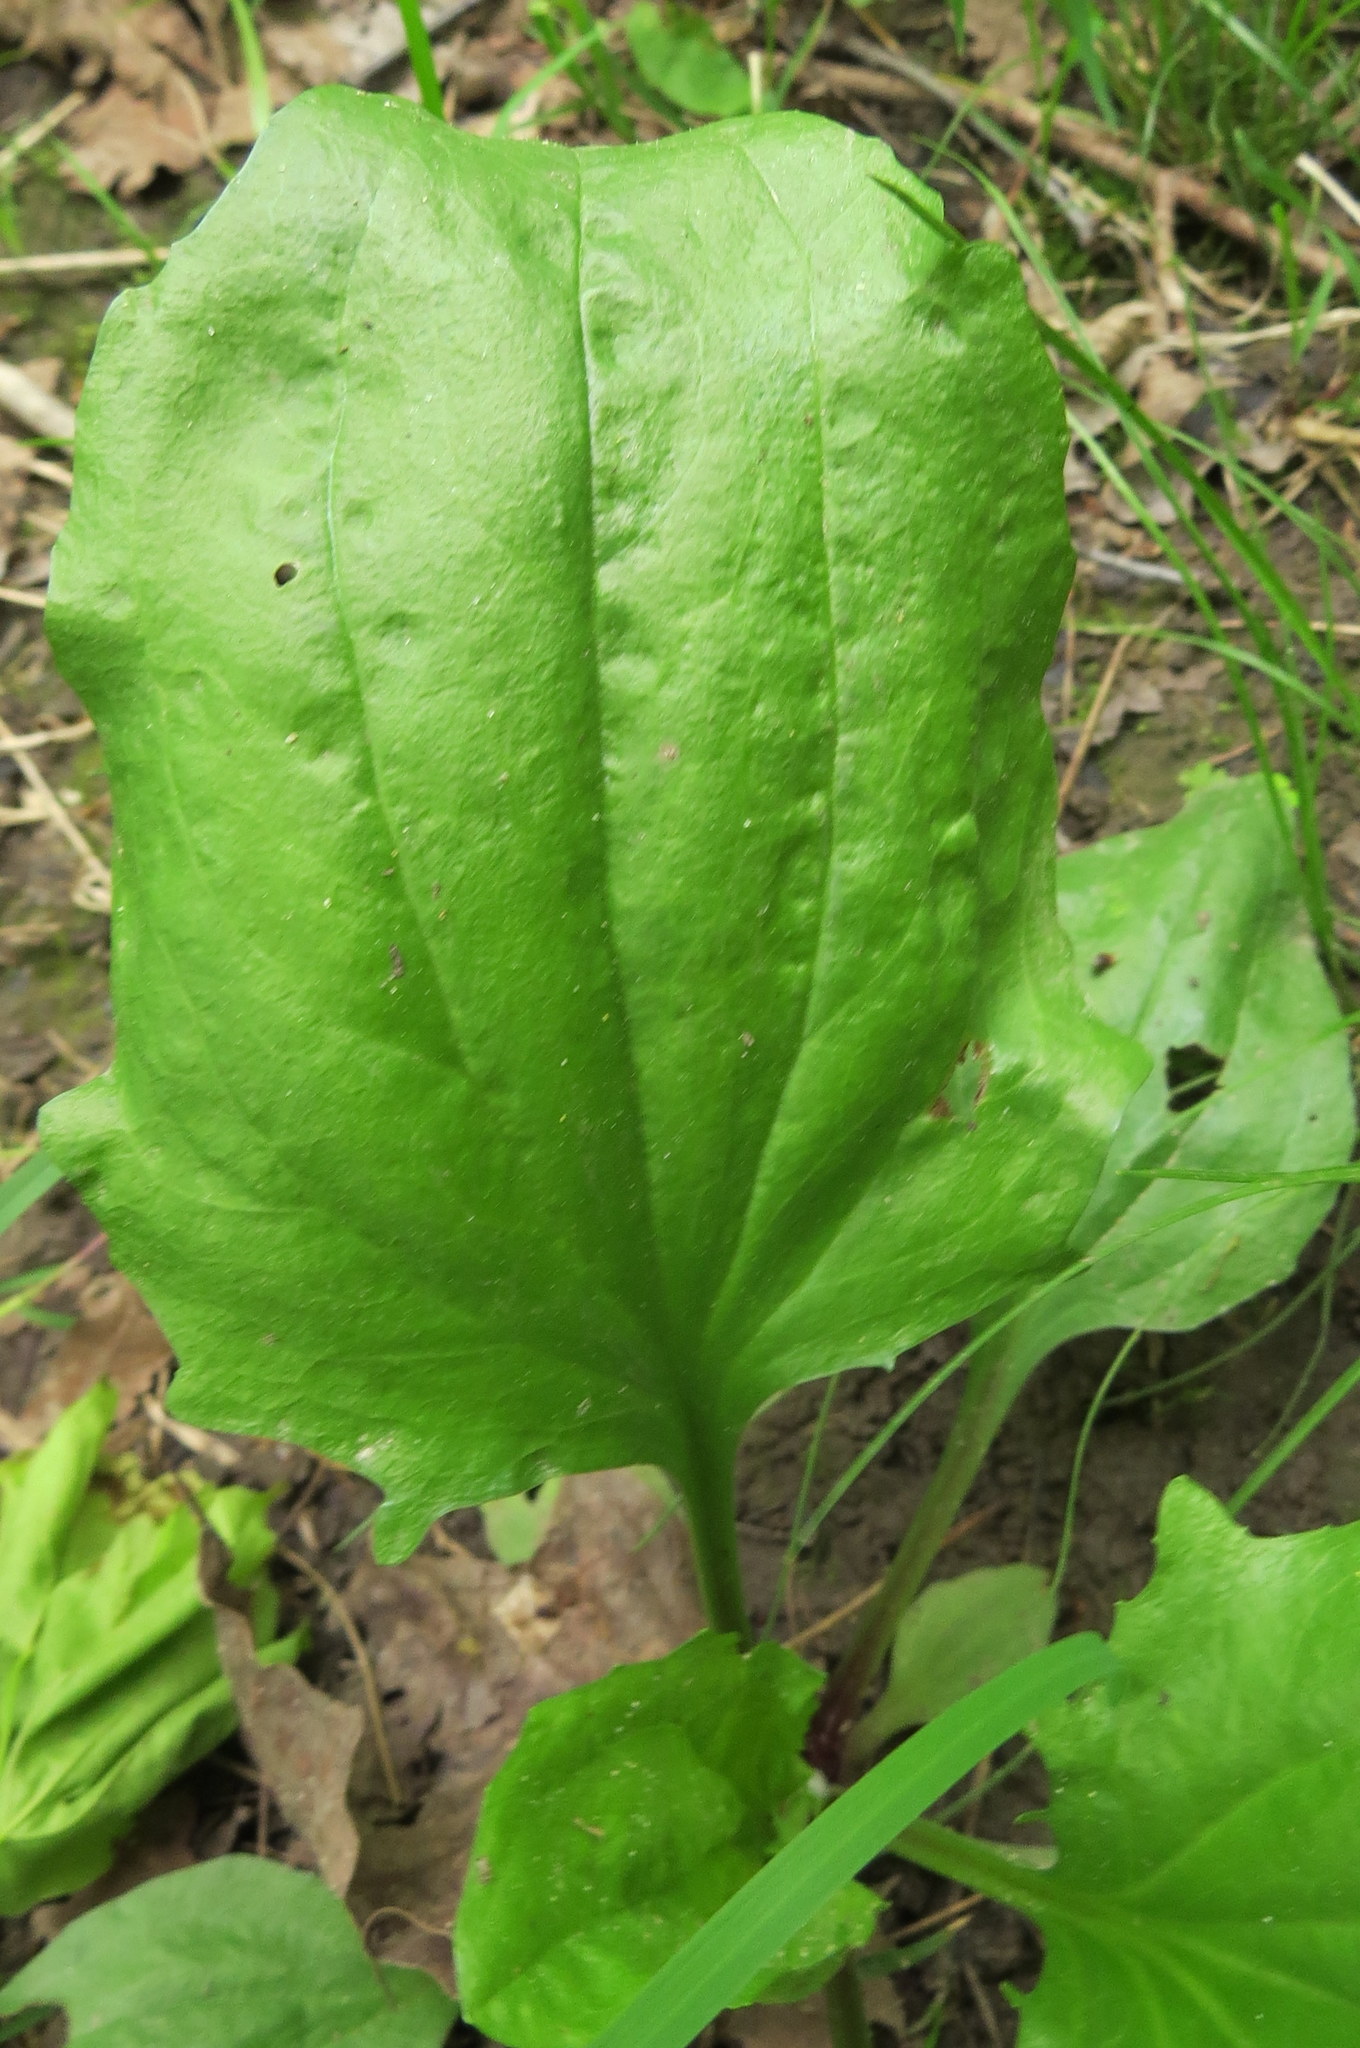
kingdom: Plantae
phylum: Tracheophyta
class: Magnoliopsida
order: Lamiales
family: Plantaginaceae
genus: Plantago
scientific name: Plantago
